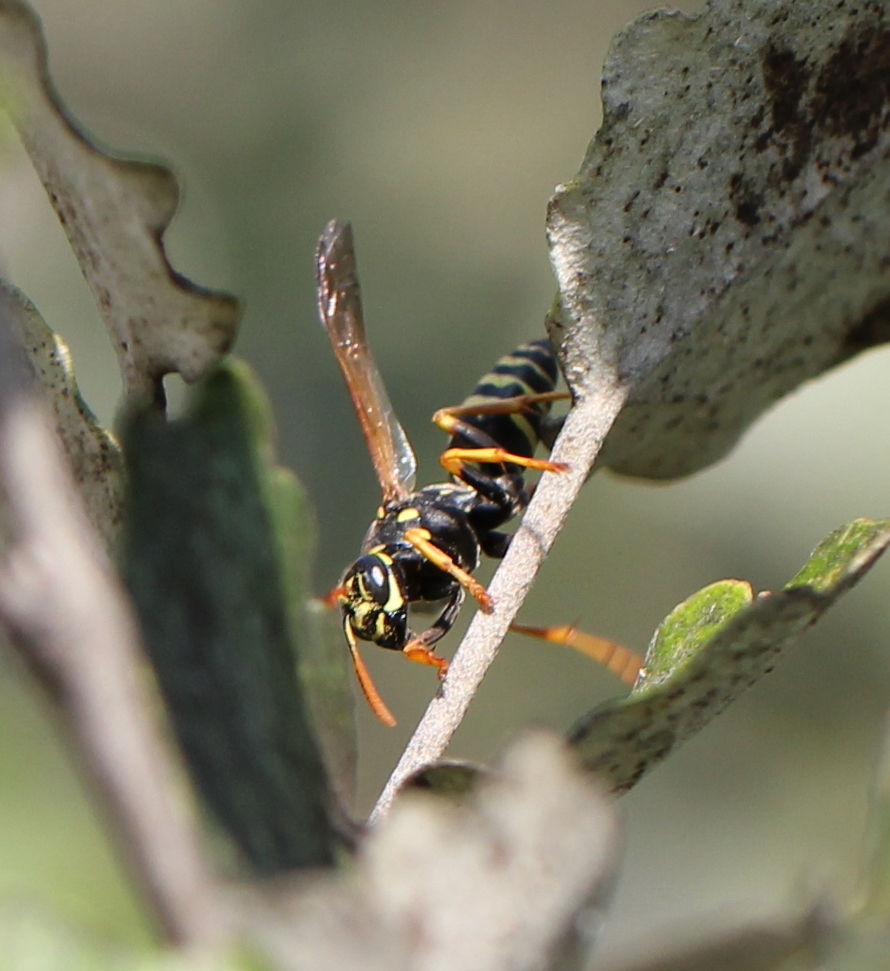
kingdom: Animalia
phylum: Arthropoda
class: Insecta
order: Hymenoptera
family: Eumenidae
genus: Polistes
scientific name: Polistes nimpha
